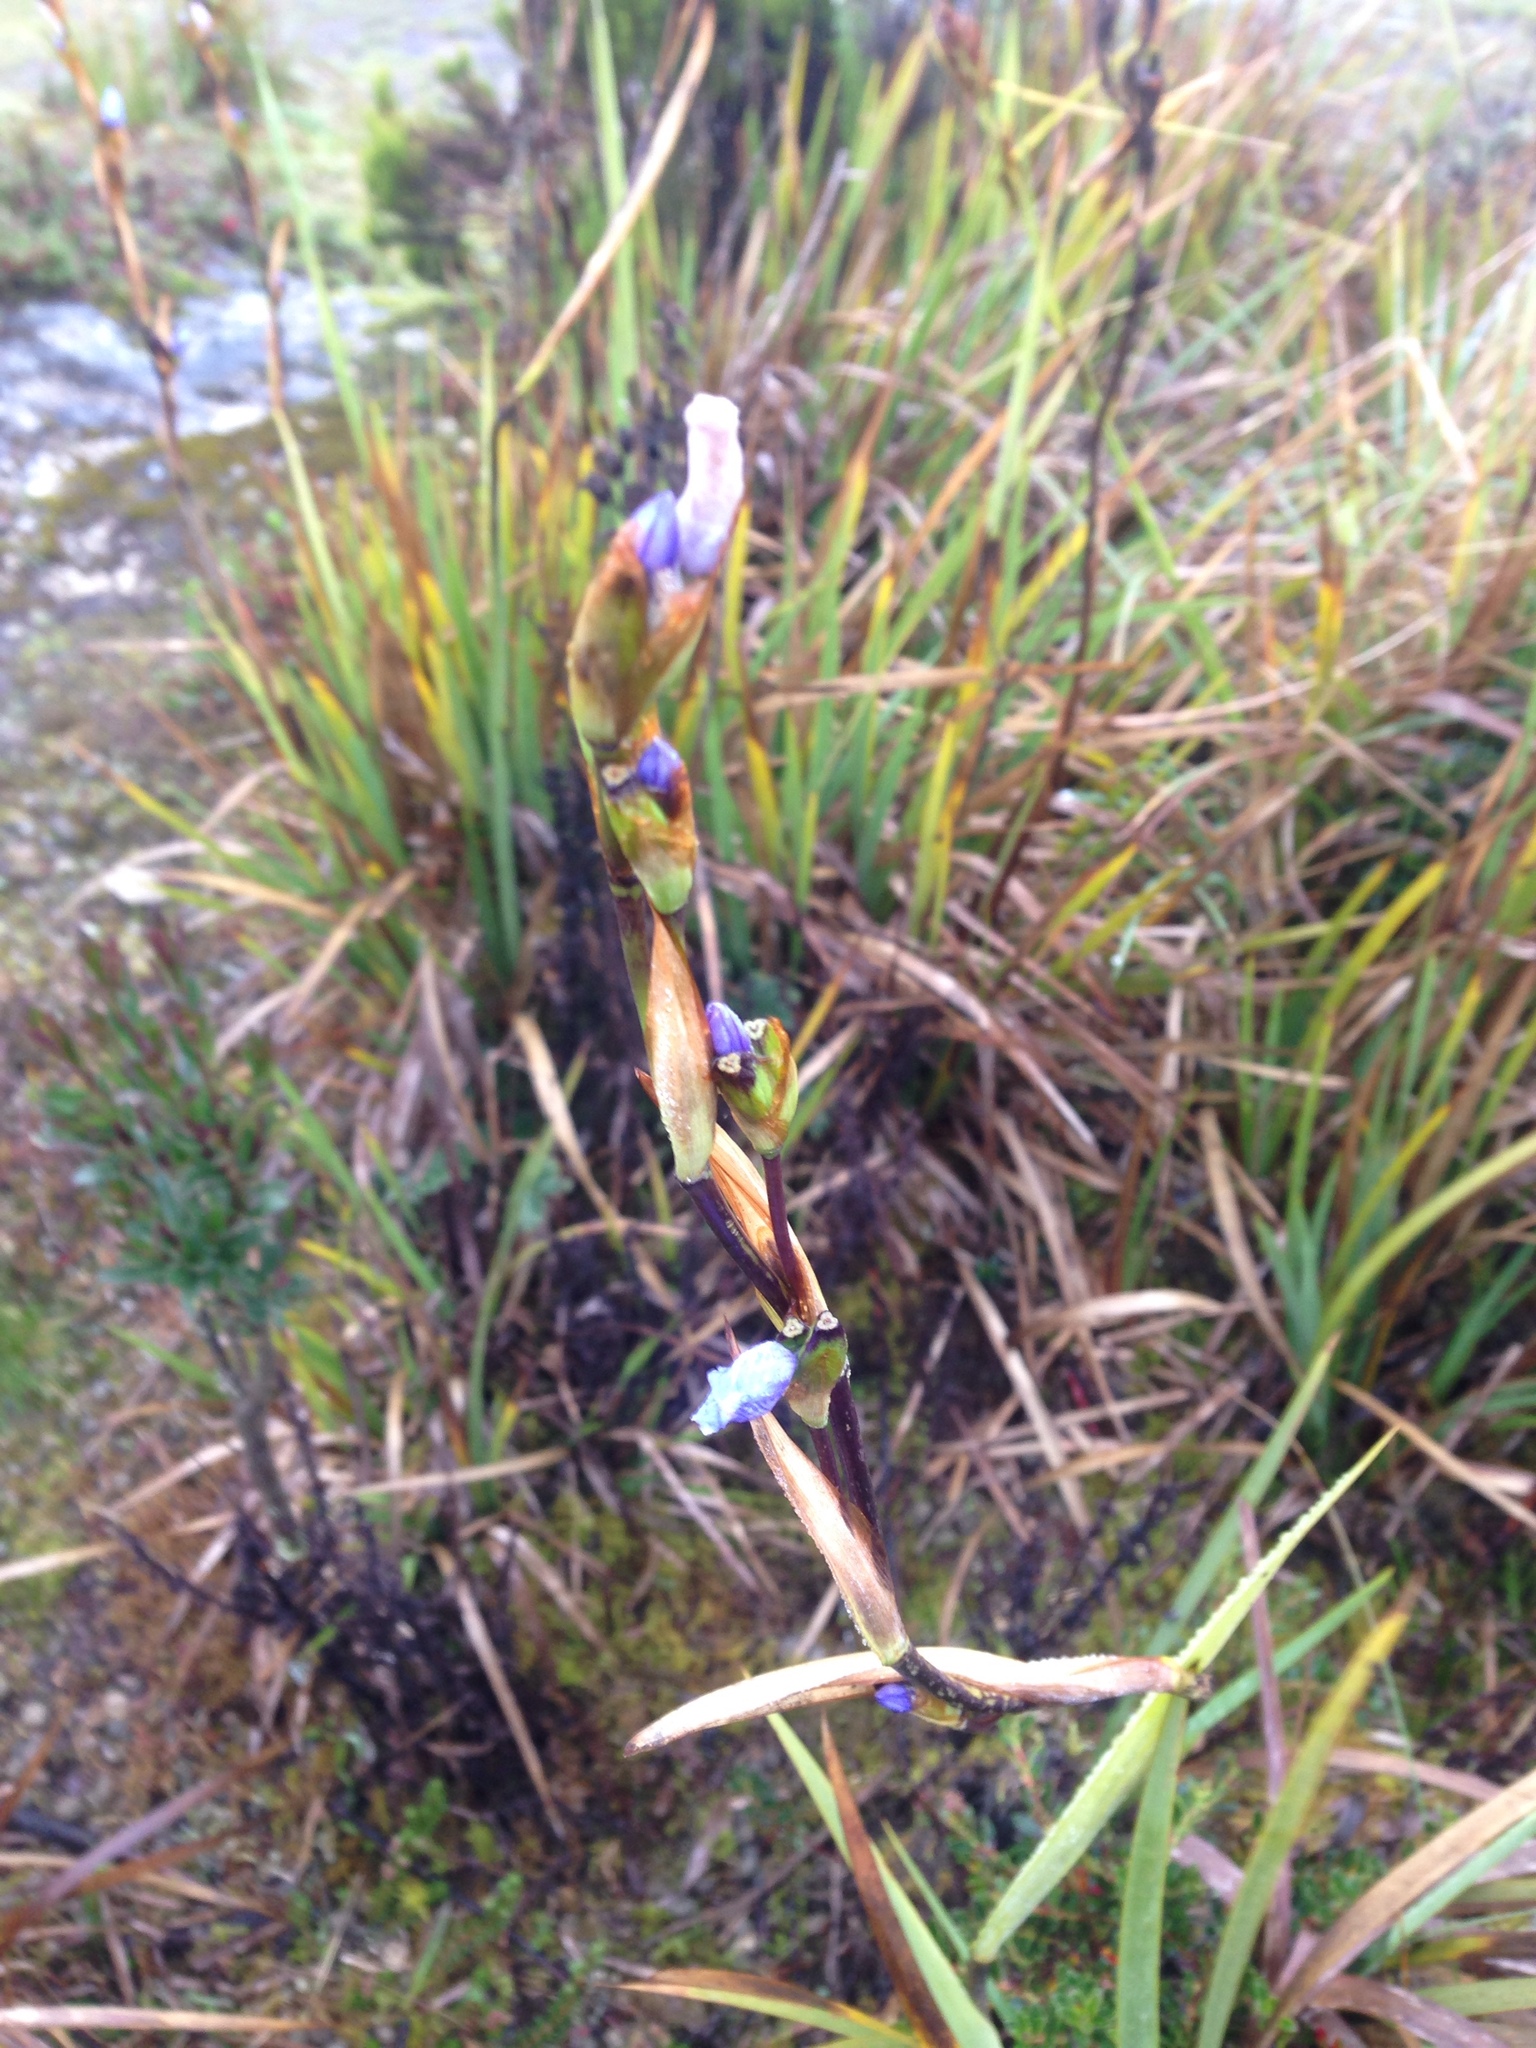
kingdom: Plantae
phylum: Tracheophyta
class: Liliopsida
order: Asparagales
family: Iridaceae
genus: Orthrosanthus
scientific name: Orthrosanthus chimboracensis
